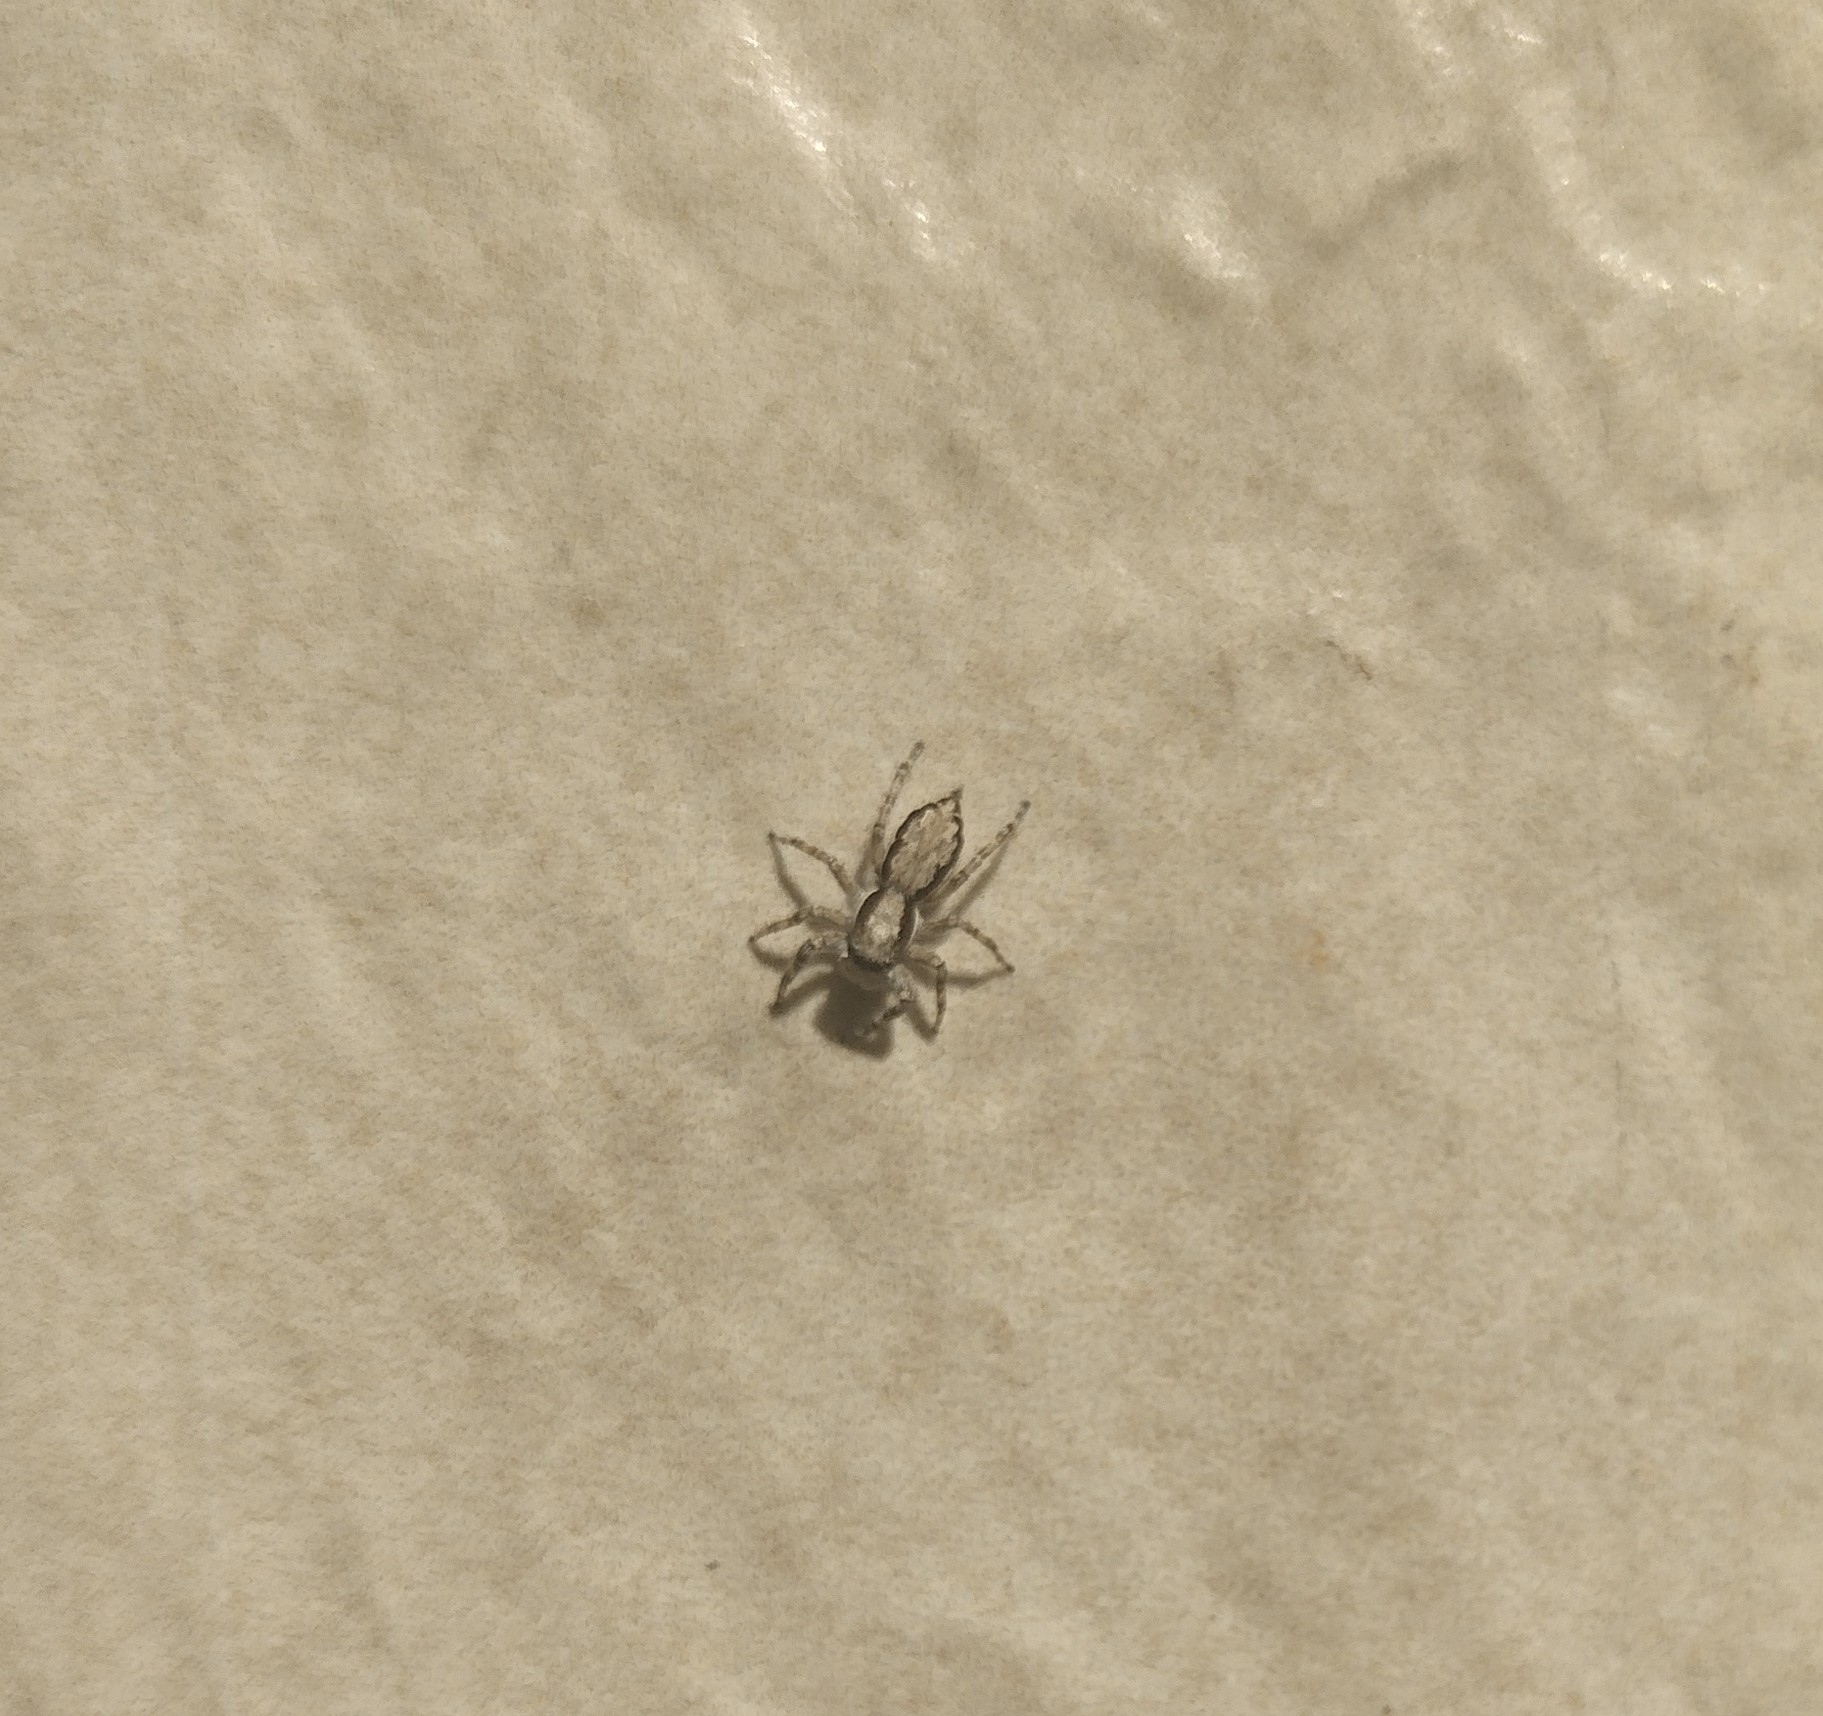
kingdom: Animalia
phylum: Arthropoda
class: Arachnida
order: Araneae
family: Salticidae
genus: Menemerus
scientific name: Menemerus bivittatus
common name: Gray wall jumper
